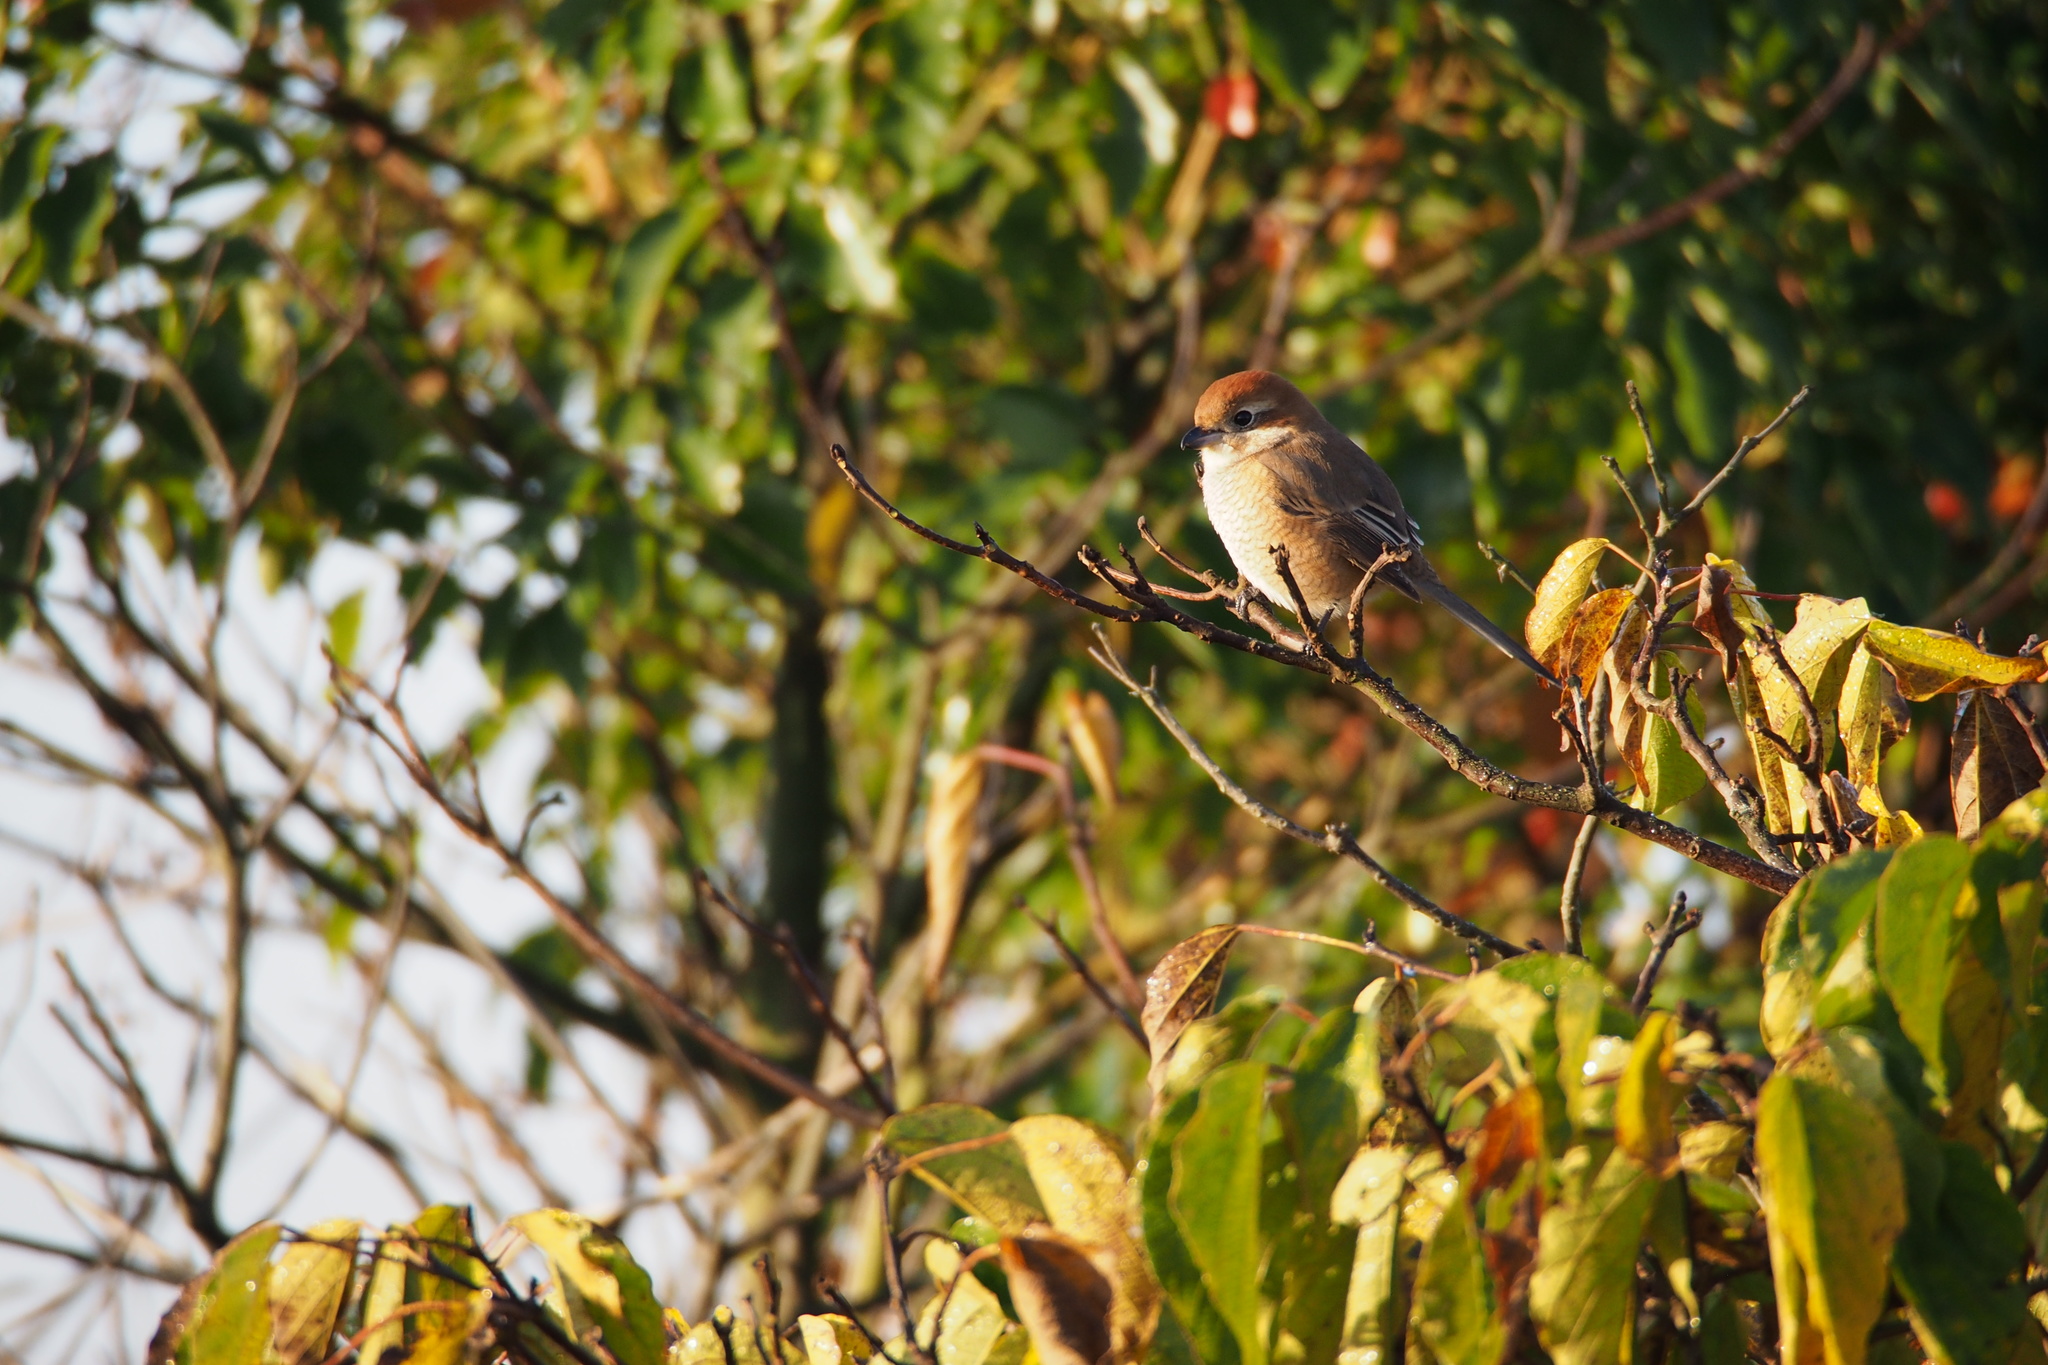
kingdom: Animalia
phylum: Chordata
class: Aves
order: Passeriformes
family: Laniidae
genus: Lanius
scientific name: Lanius bucephalus
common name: Bull-headed shrike
